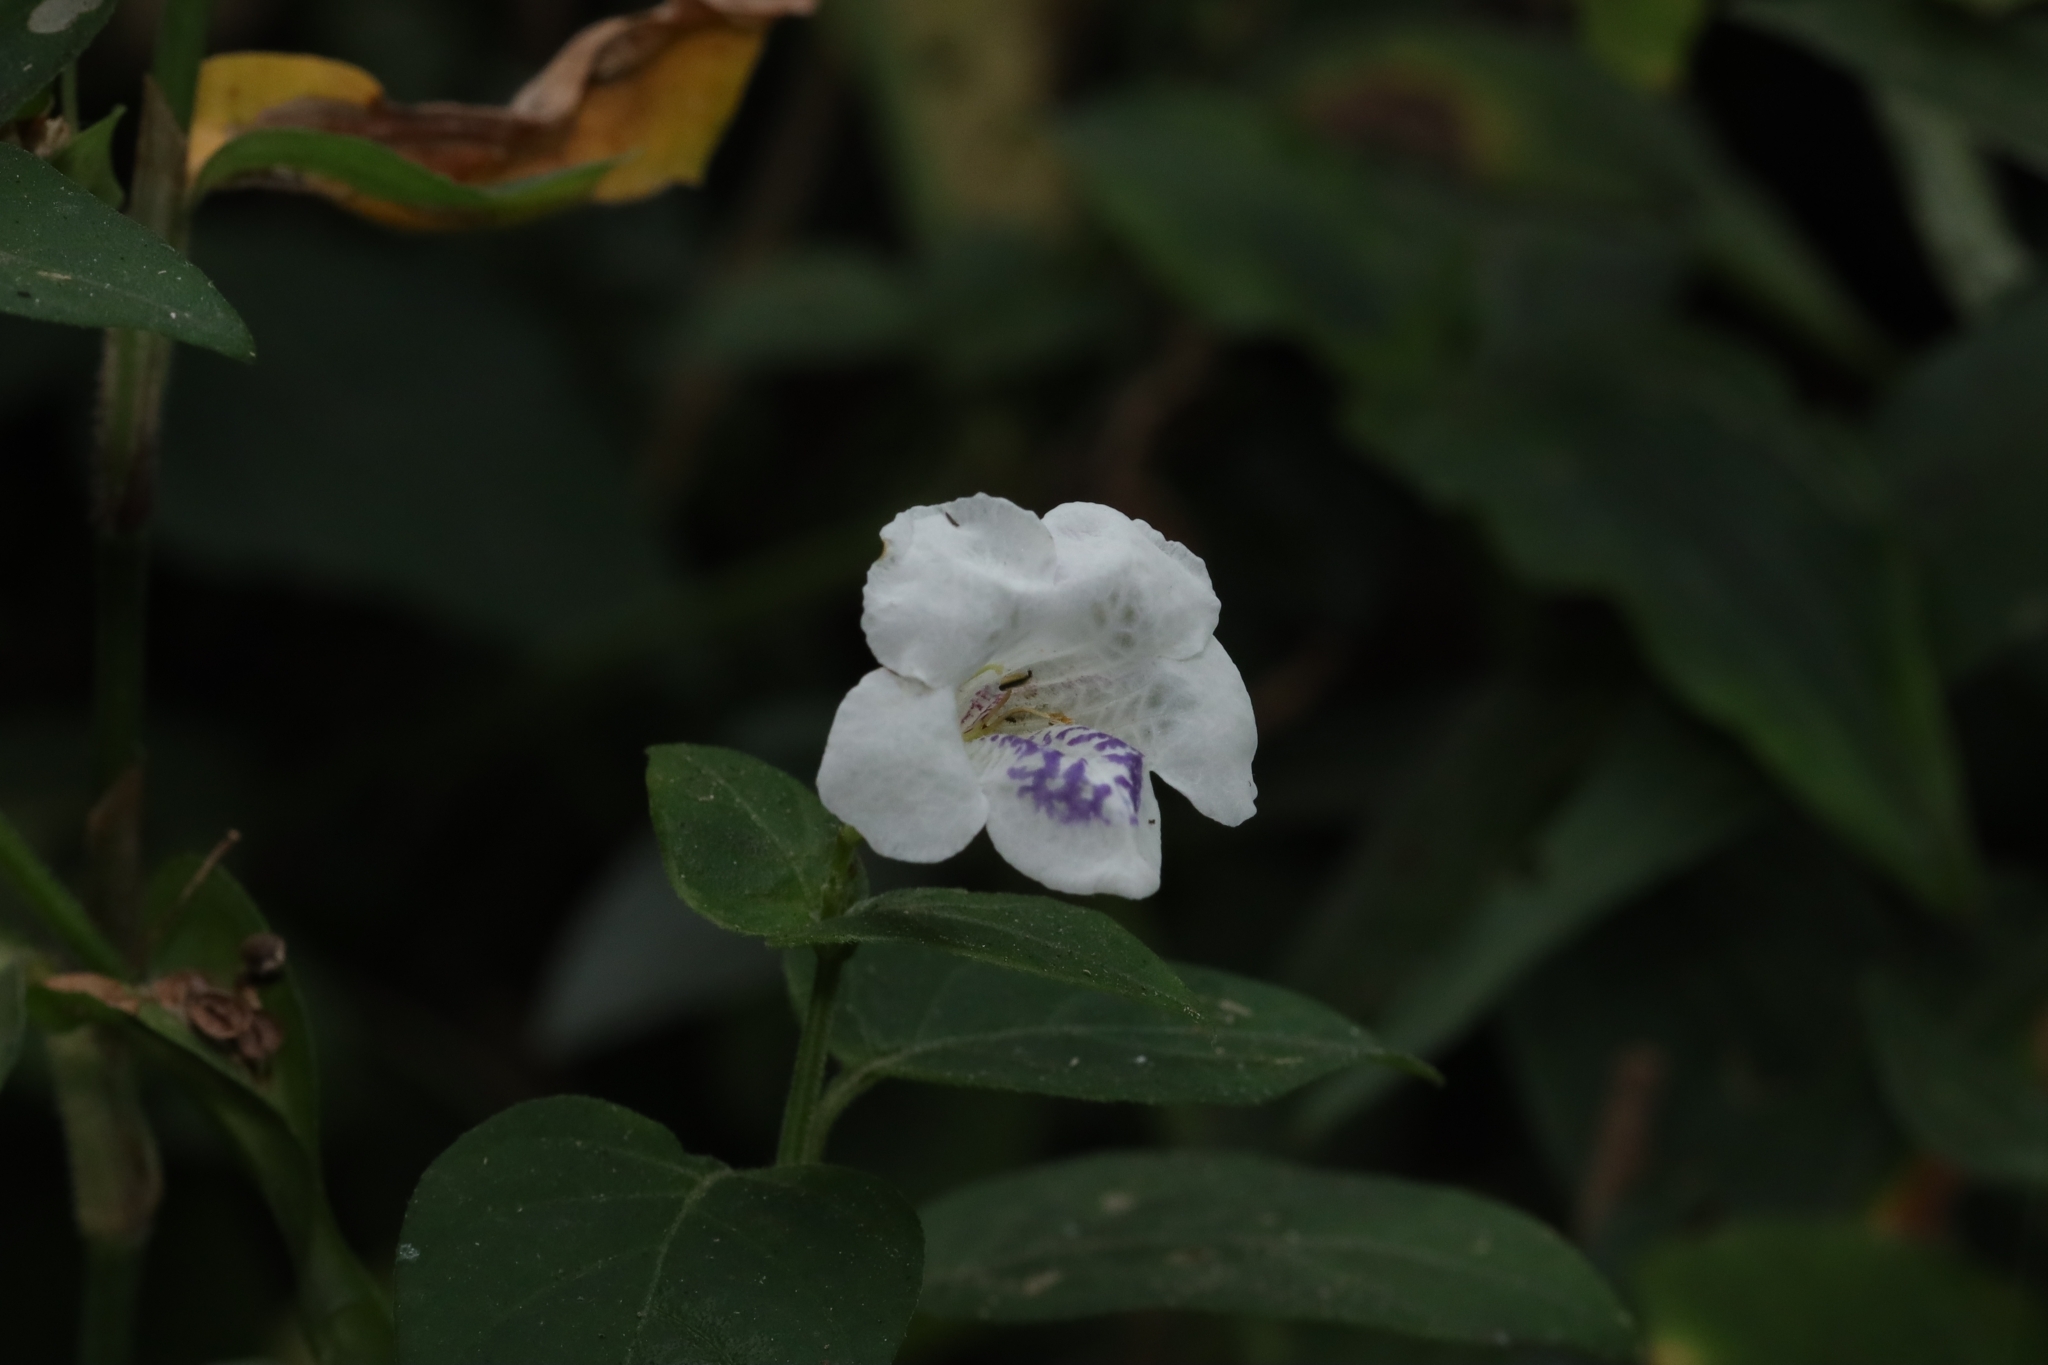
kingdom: Plantae
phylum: Tracheophyta
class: Magnoliopsida
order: Lamiales
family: Acanthaceae
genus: Asystasia
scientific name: Asystasia intrusa
